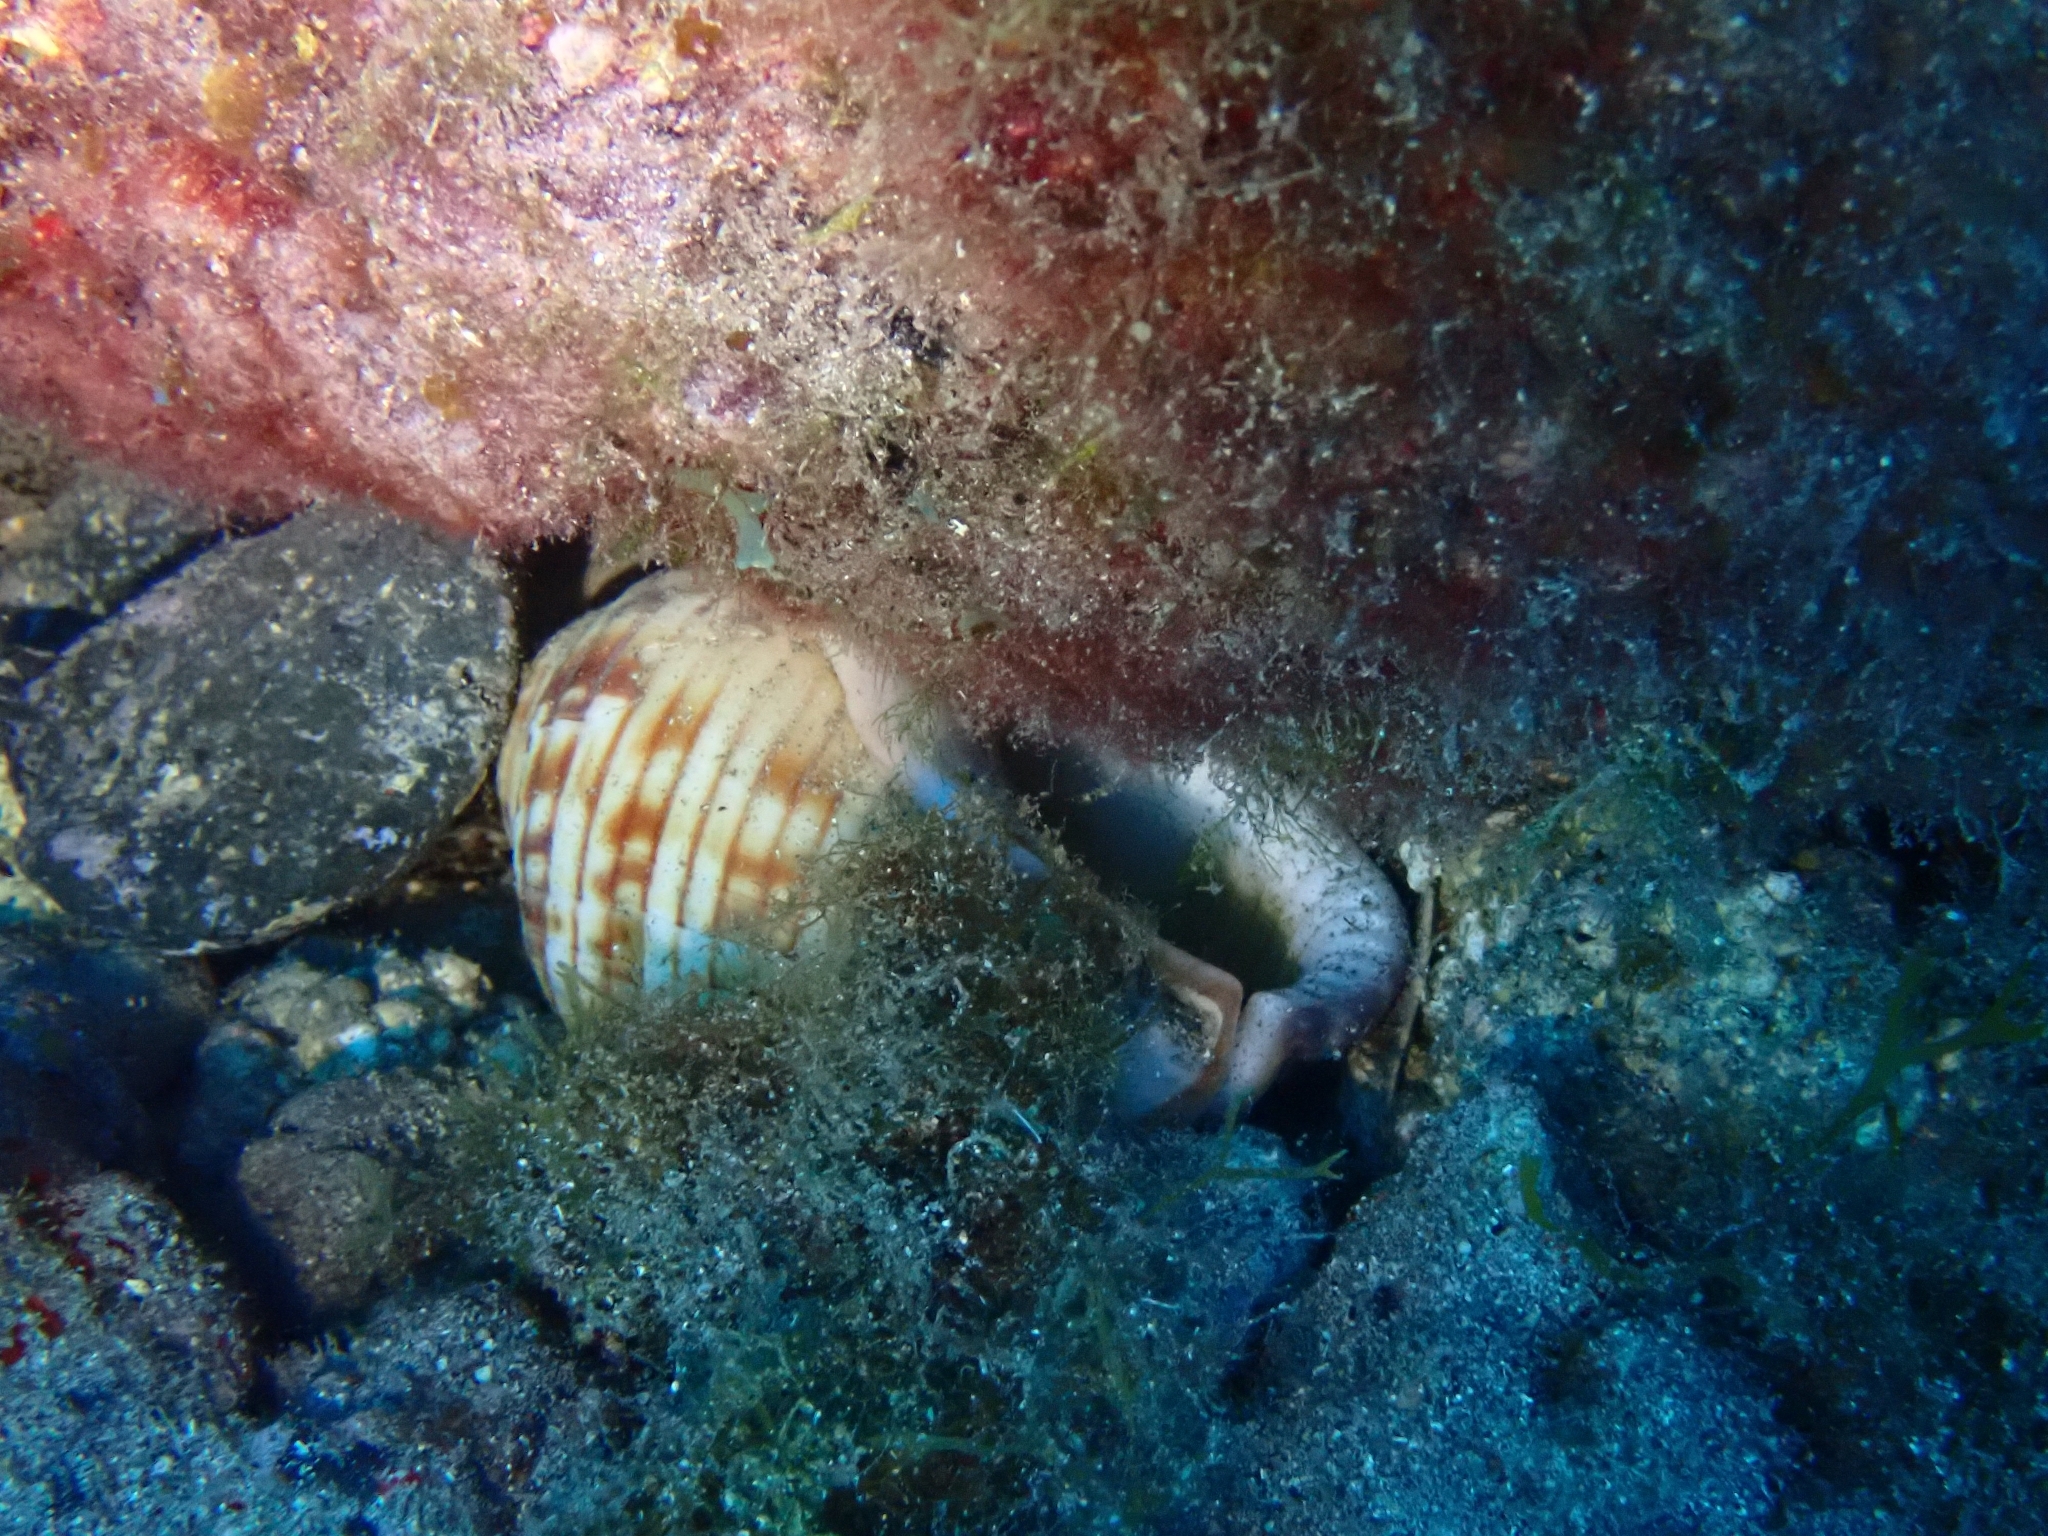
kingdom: Animalia
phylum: Mollusca
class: Gastropoda
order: Littorinimorpha
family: Cassidae
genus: Semicassis
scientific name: Semicassis undulata
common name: Mediterranean bonnet
